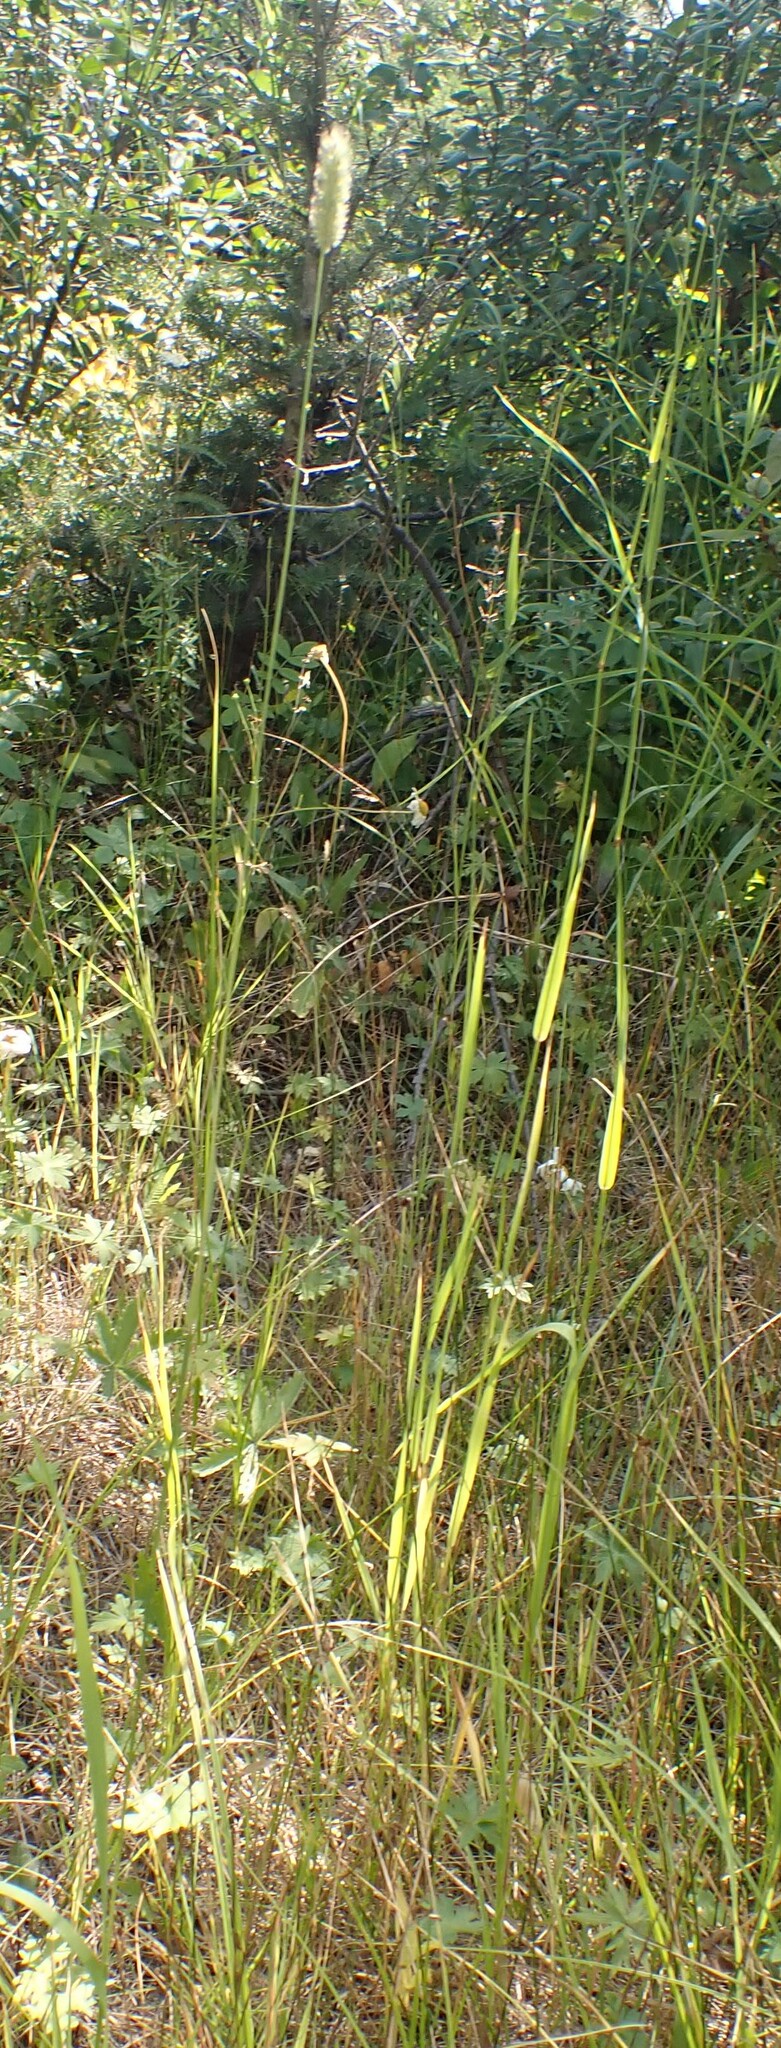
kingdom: Plantae
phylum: Tracheophyta
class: Liliopsida
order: Poales
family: Poaceae
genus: Phleum
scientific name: Phleum pratense
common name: Timothy grass
